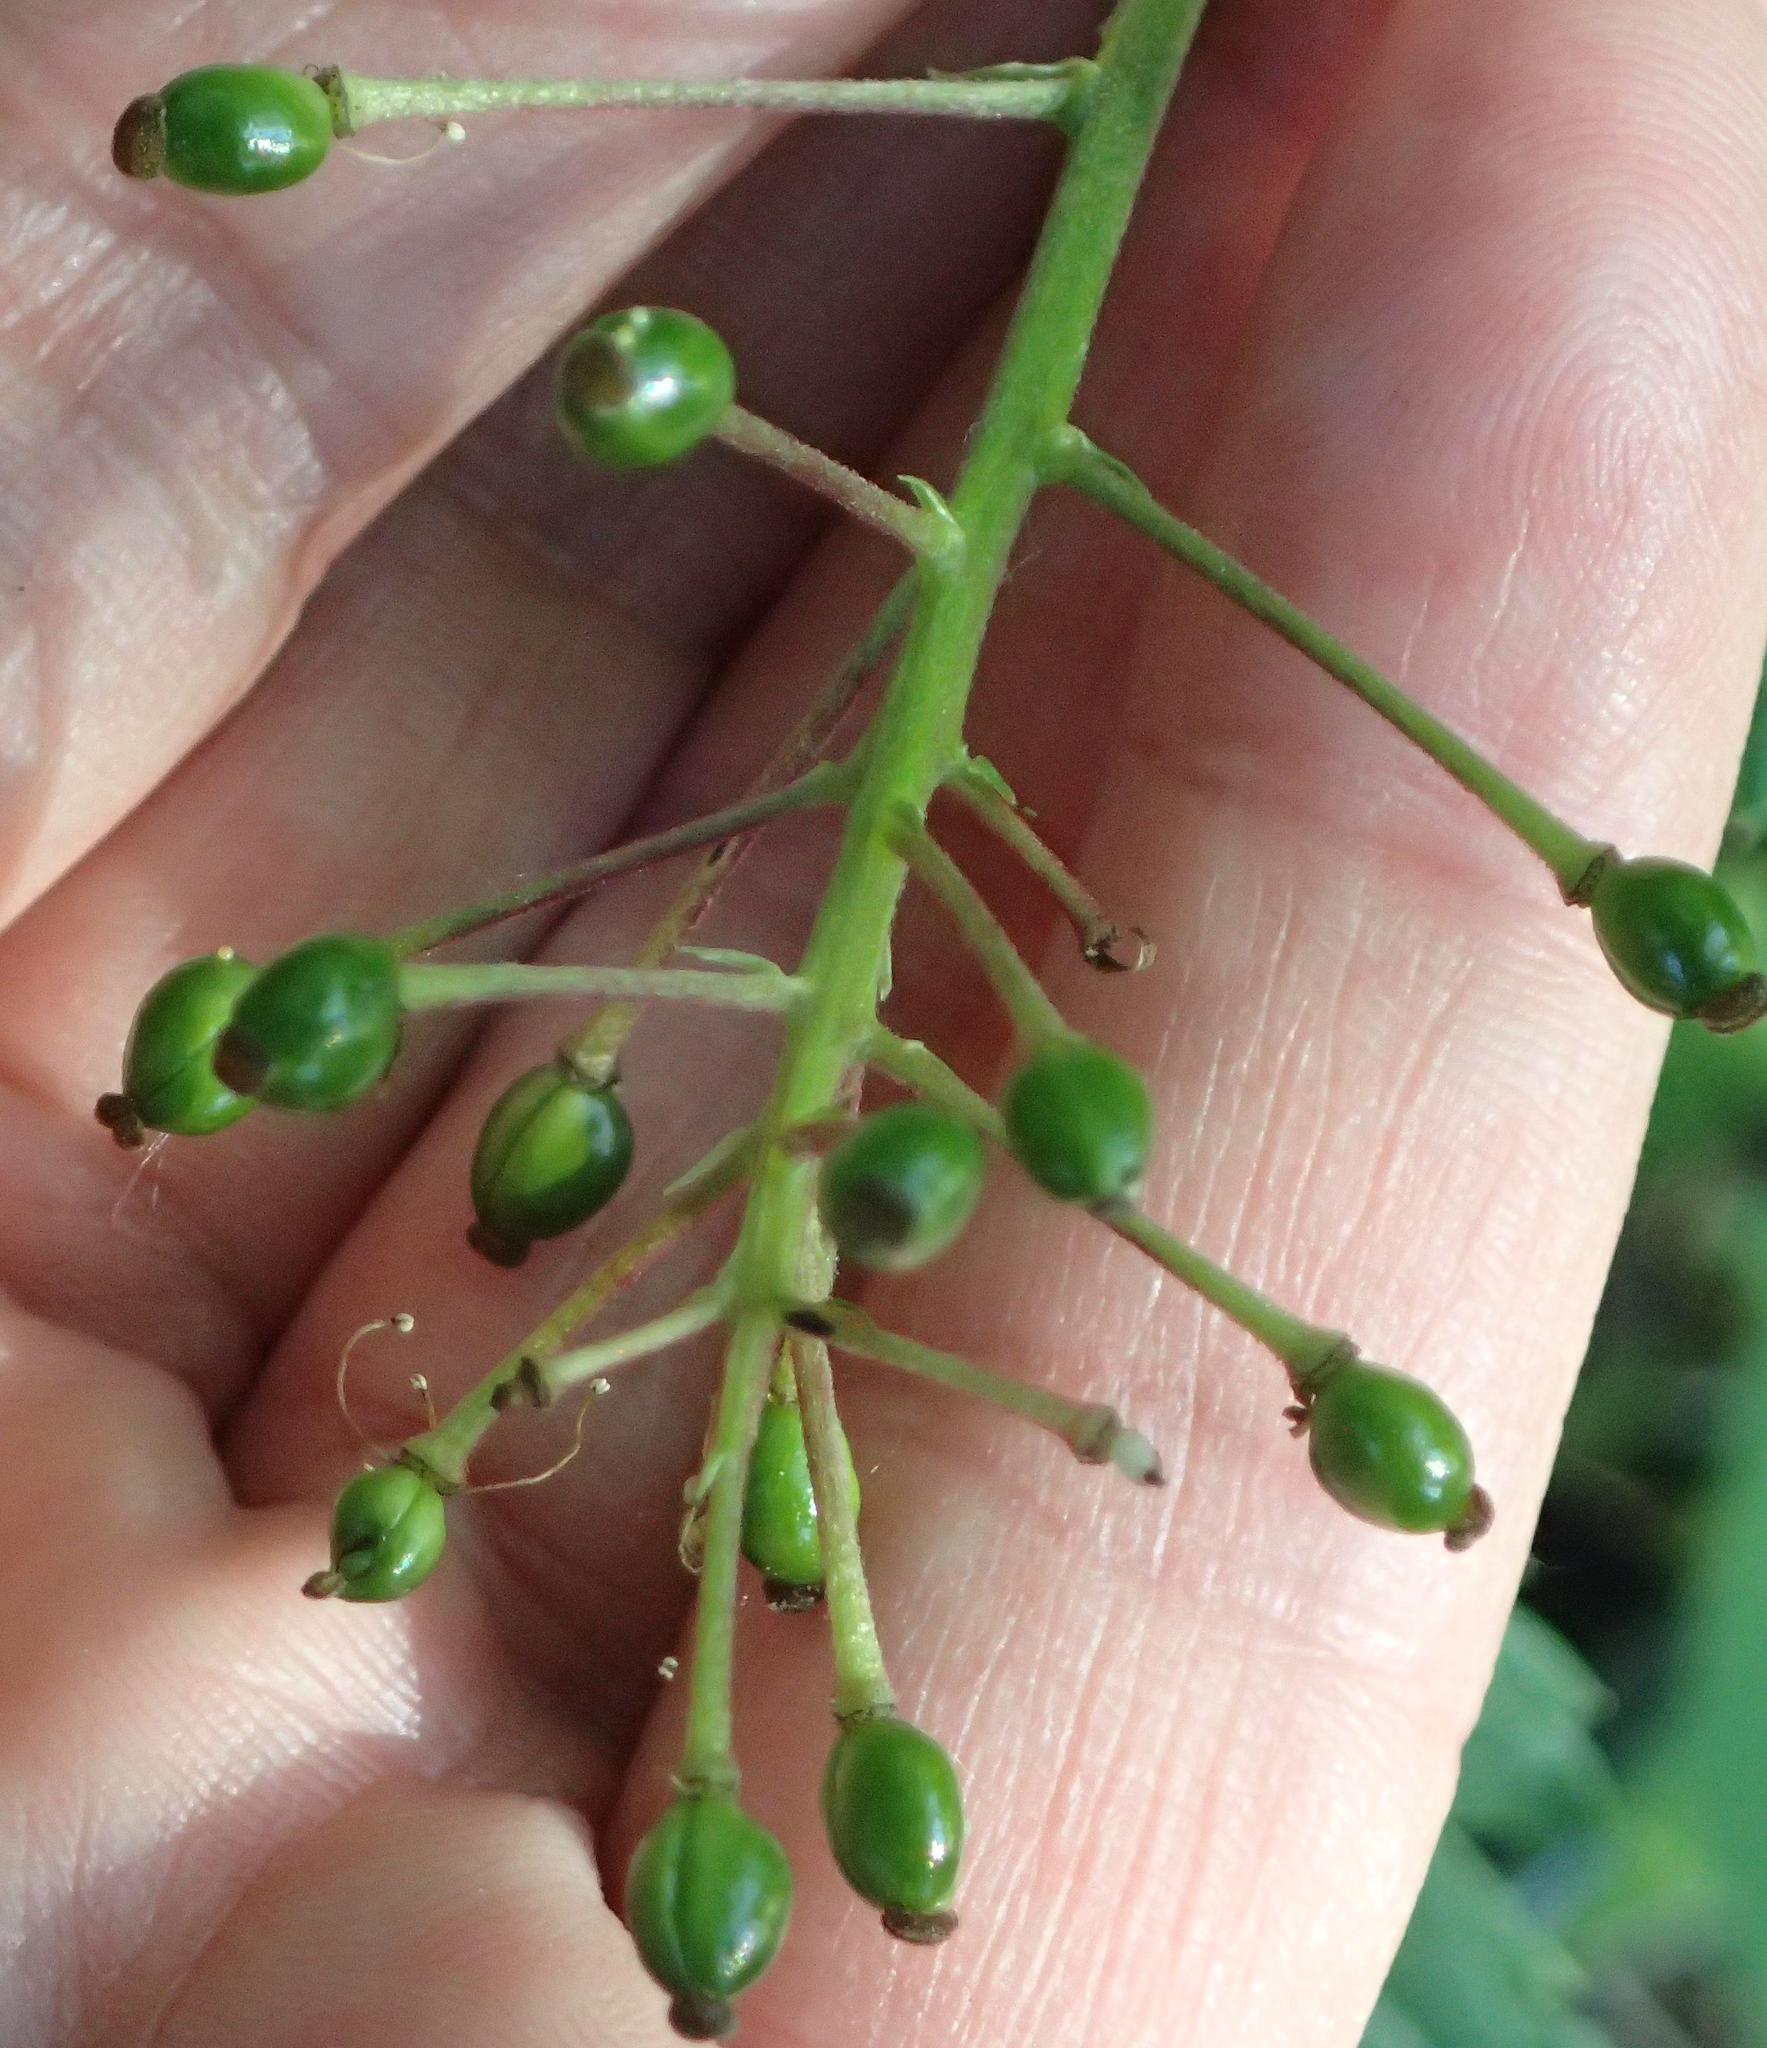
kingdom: Plantae
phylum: Tracheophyta
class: Magnoliopsida
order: Ranunculales
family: Ranunculaceae
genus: Actaea
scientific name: Actaea rubra
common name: Red baneberry
